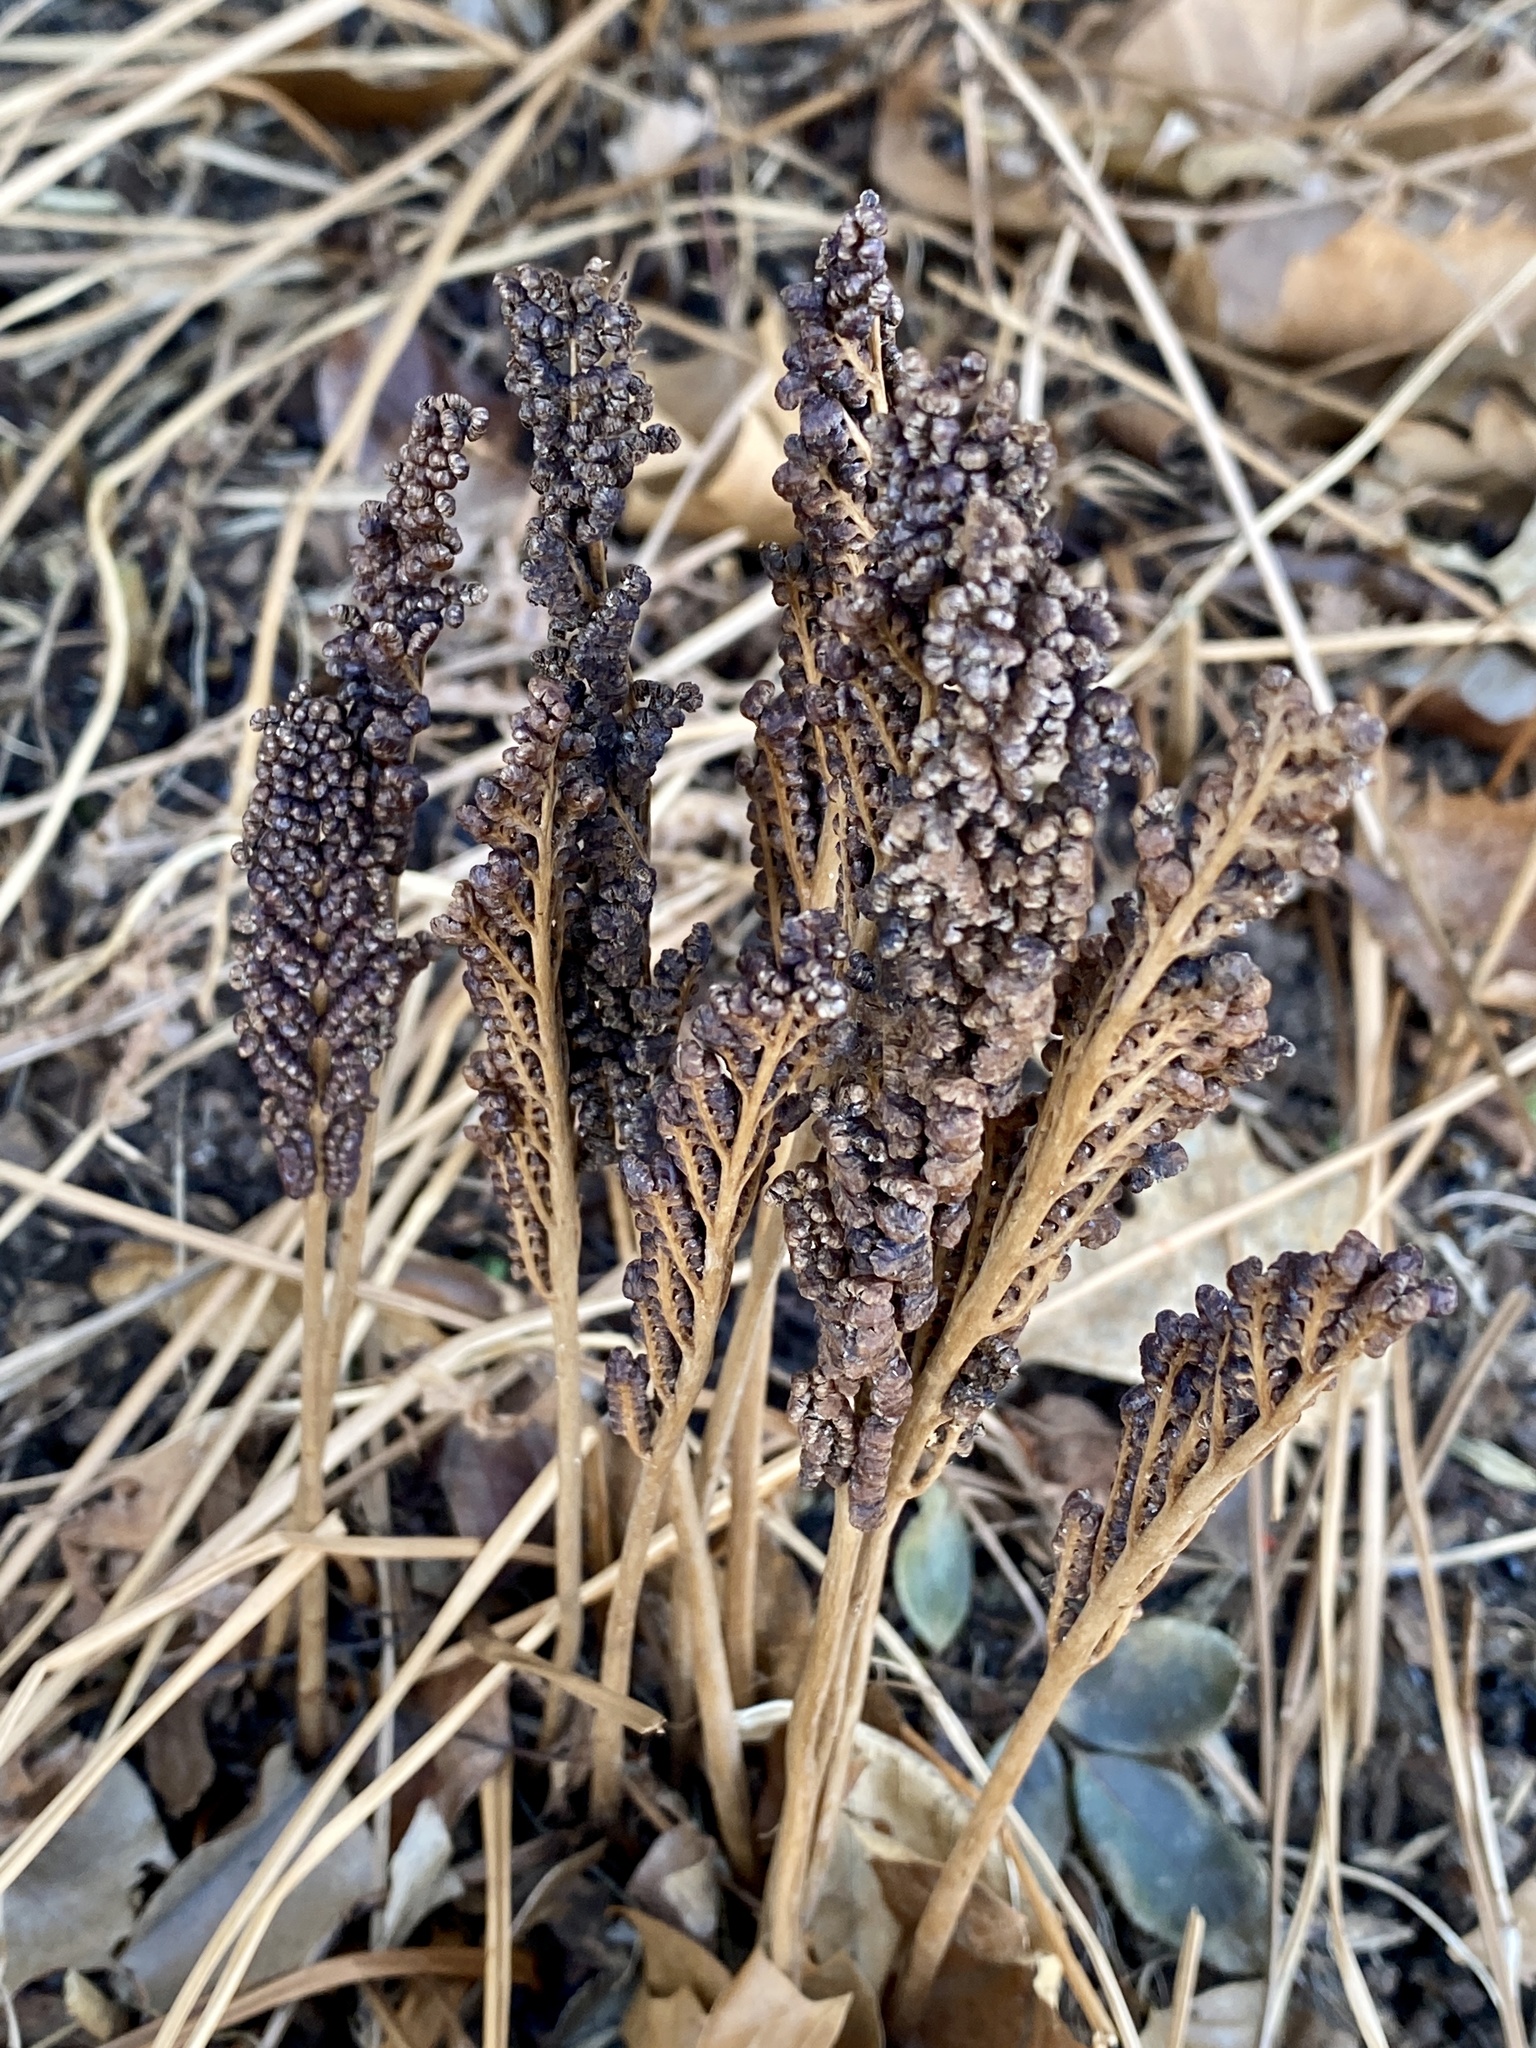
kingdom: Plantae
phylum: Tracheophyta
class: Polypodiopsida
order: Polypodiales
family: Onocleaceae
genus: Onoclea
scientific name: Onoclea sensibilis
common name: Sensitive fern
